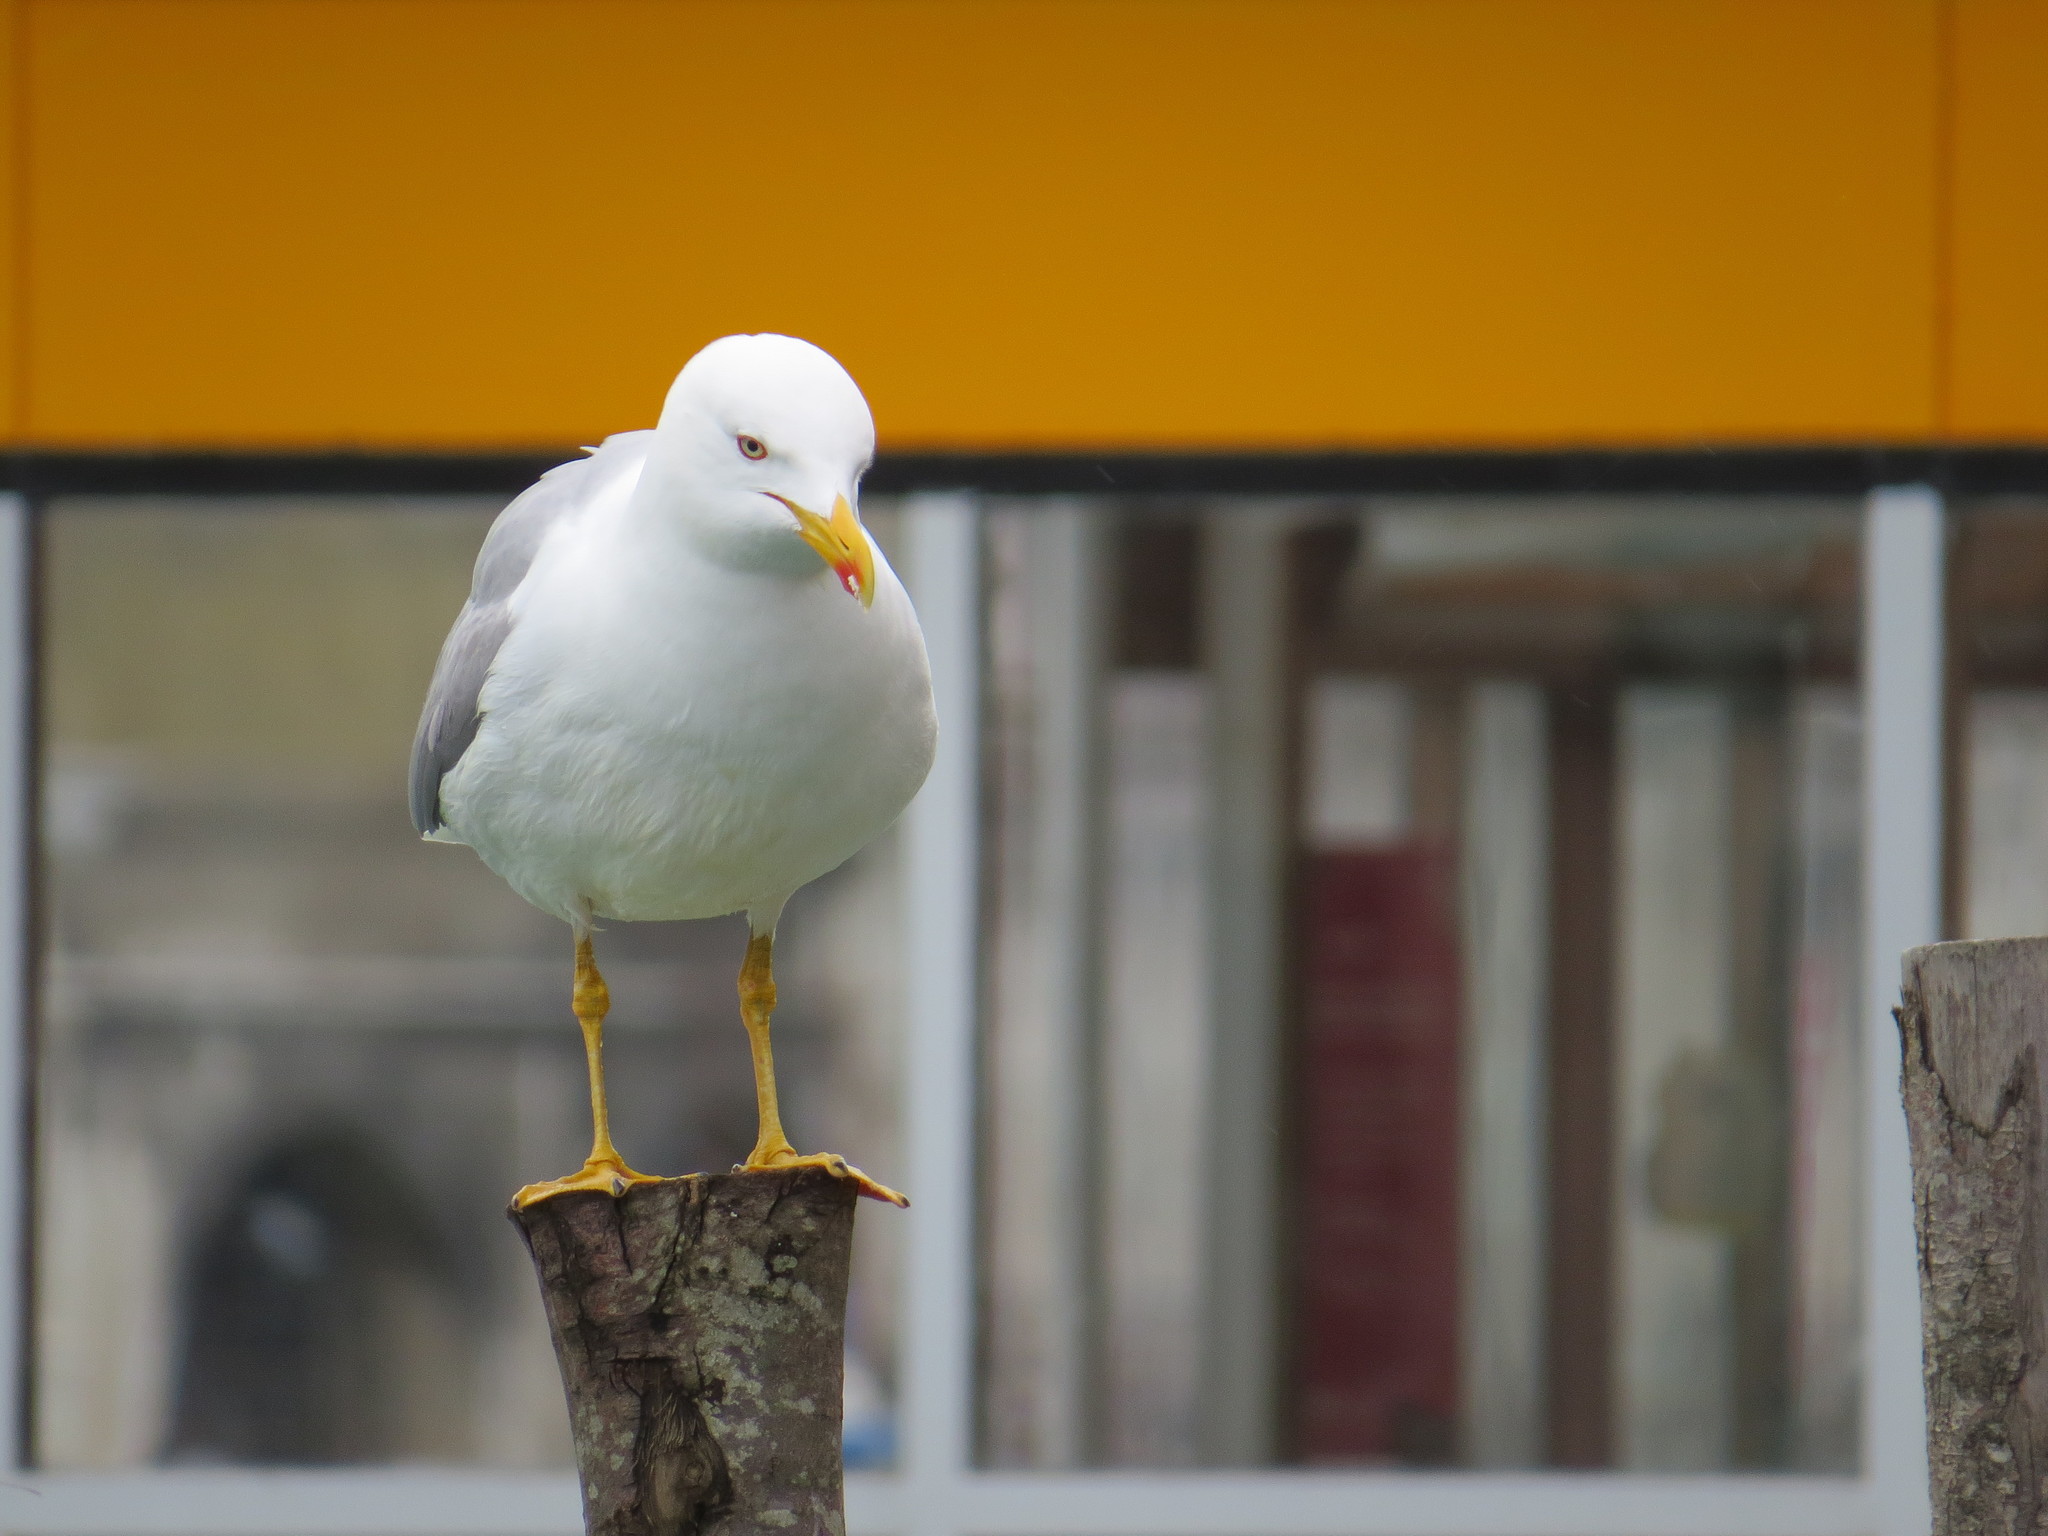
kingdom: Animalia
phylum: Chordata
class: Aves
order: Charadriiformes
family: Laridae
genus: Larus
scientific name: Larus michahellis
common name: Yellow-legged gull
